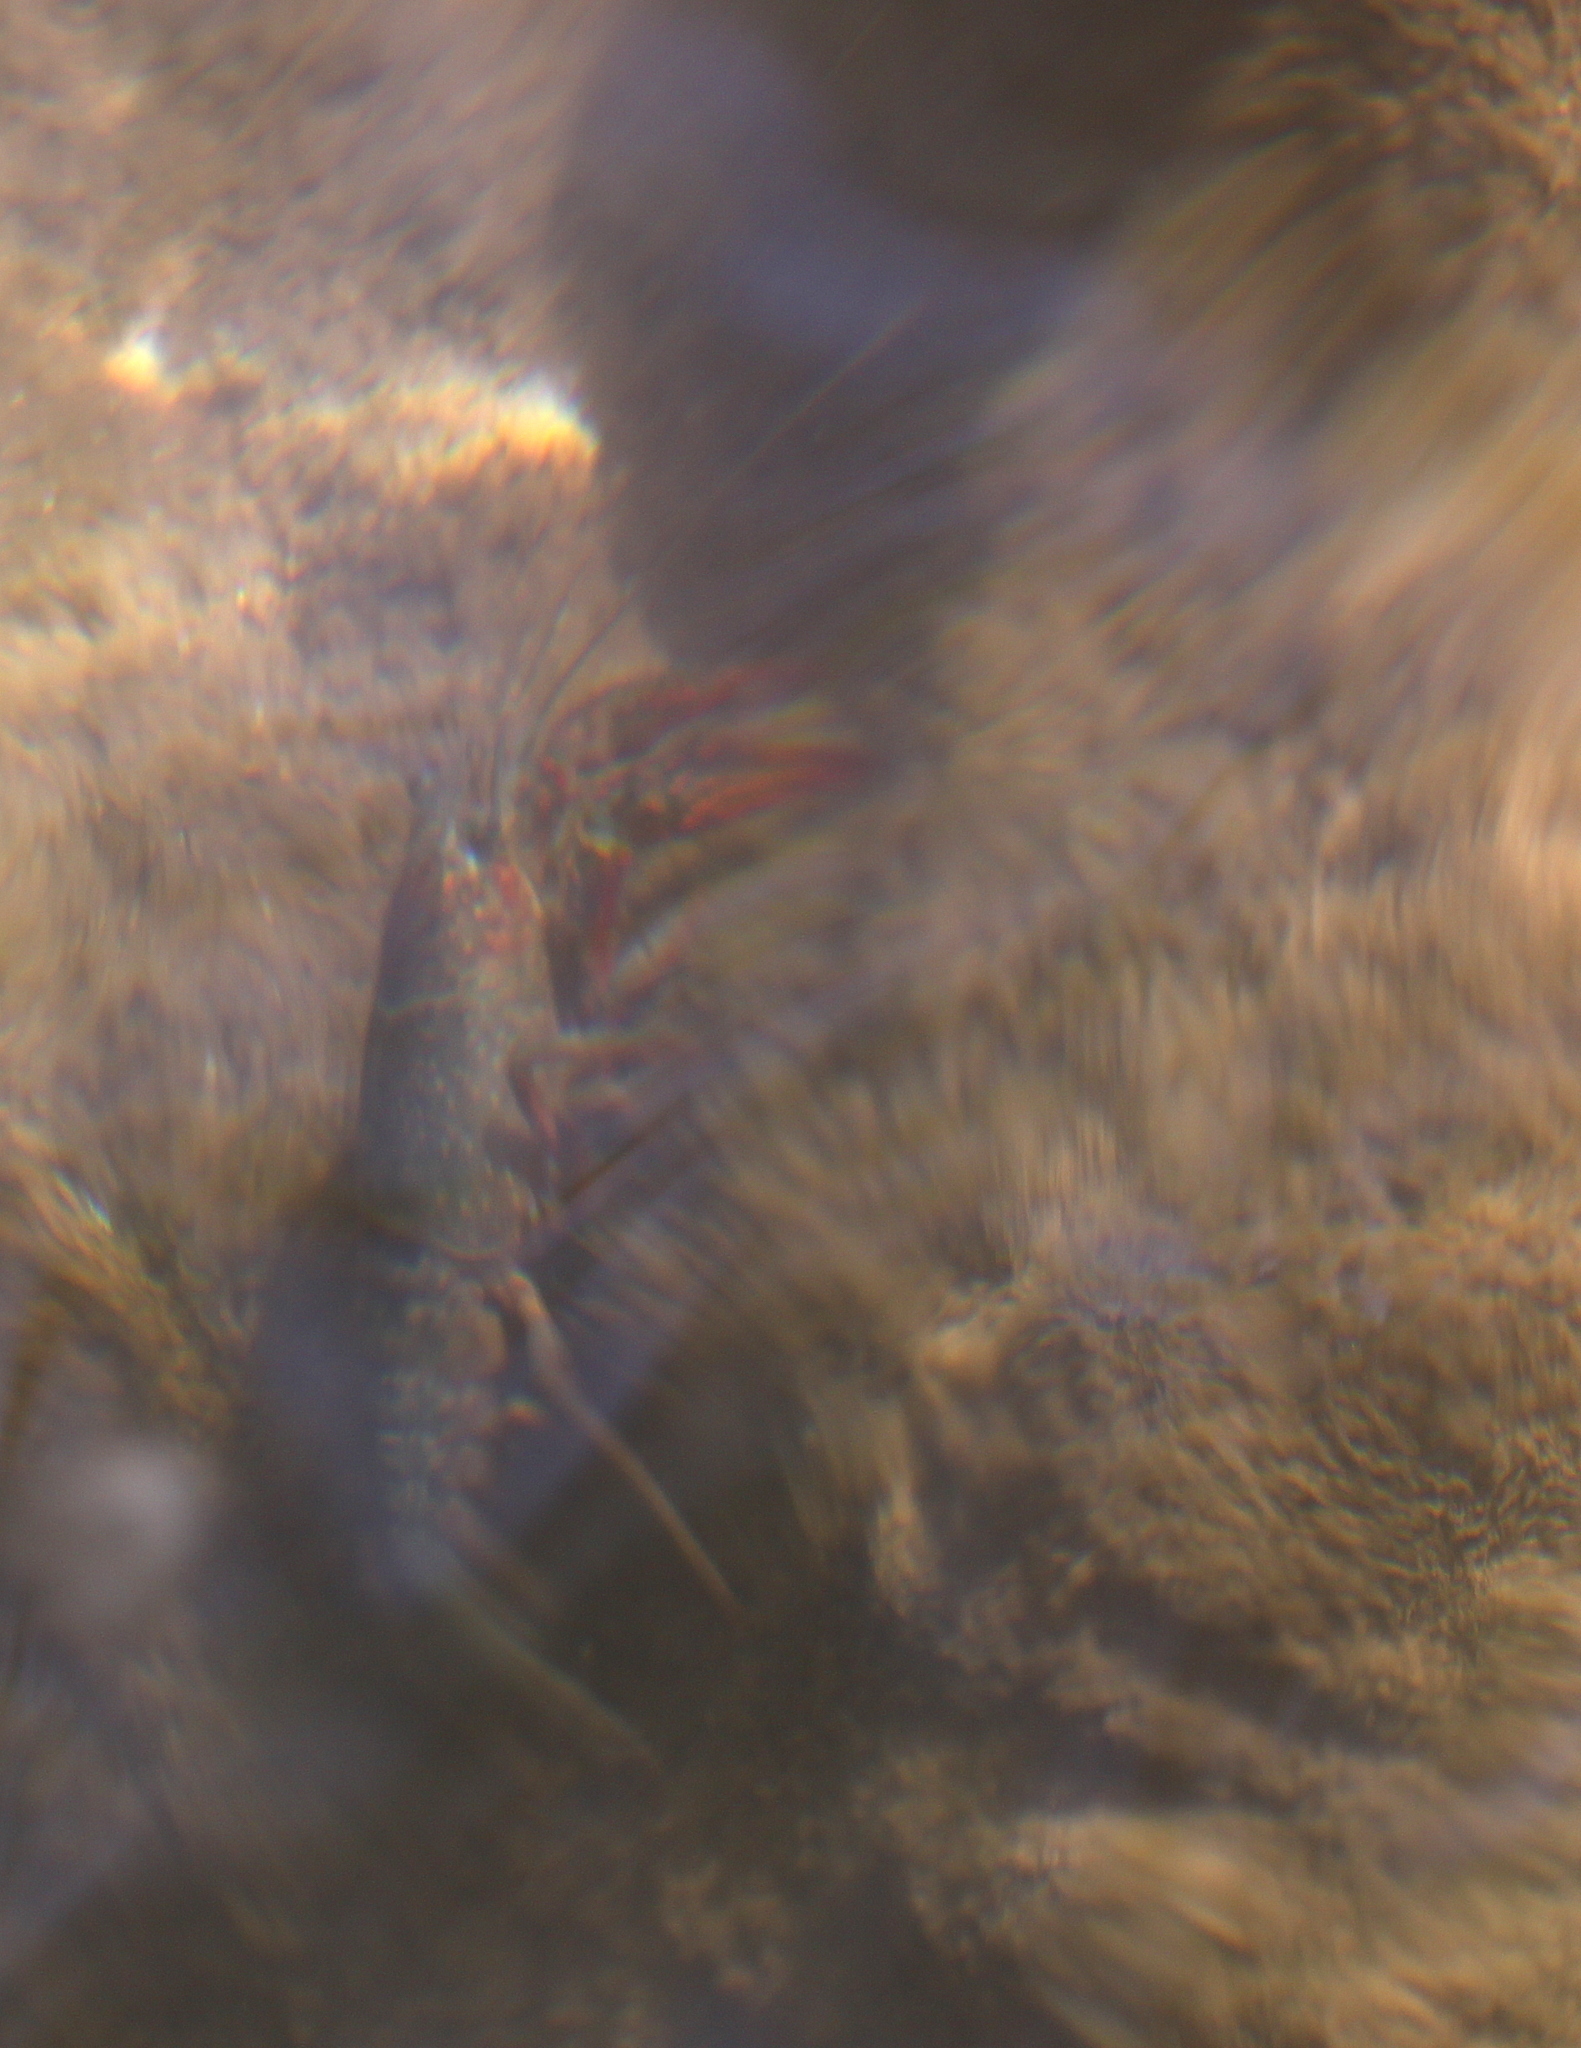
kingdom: Animalia
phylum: Arthropoda
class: Malacostraca
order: Decapoda
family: Cambaridae
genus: Procambarus
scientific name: Procambarus clarkii
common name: Red swamp crayfish
